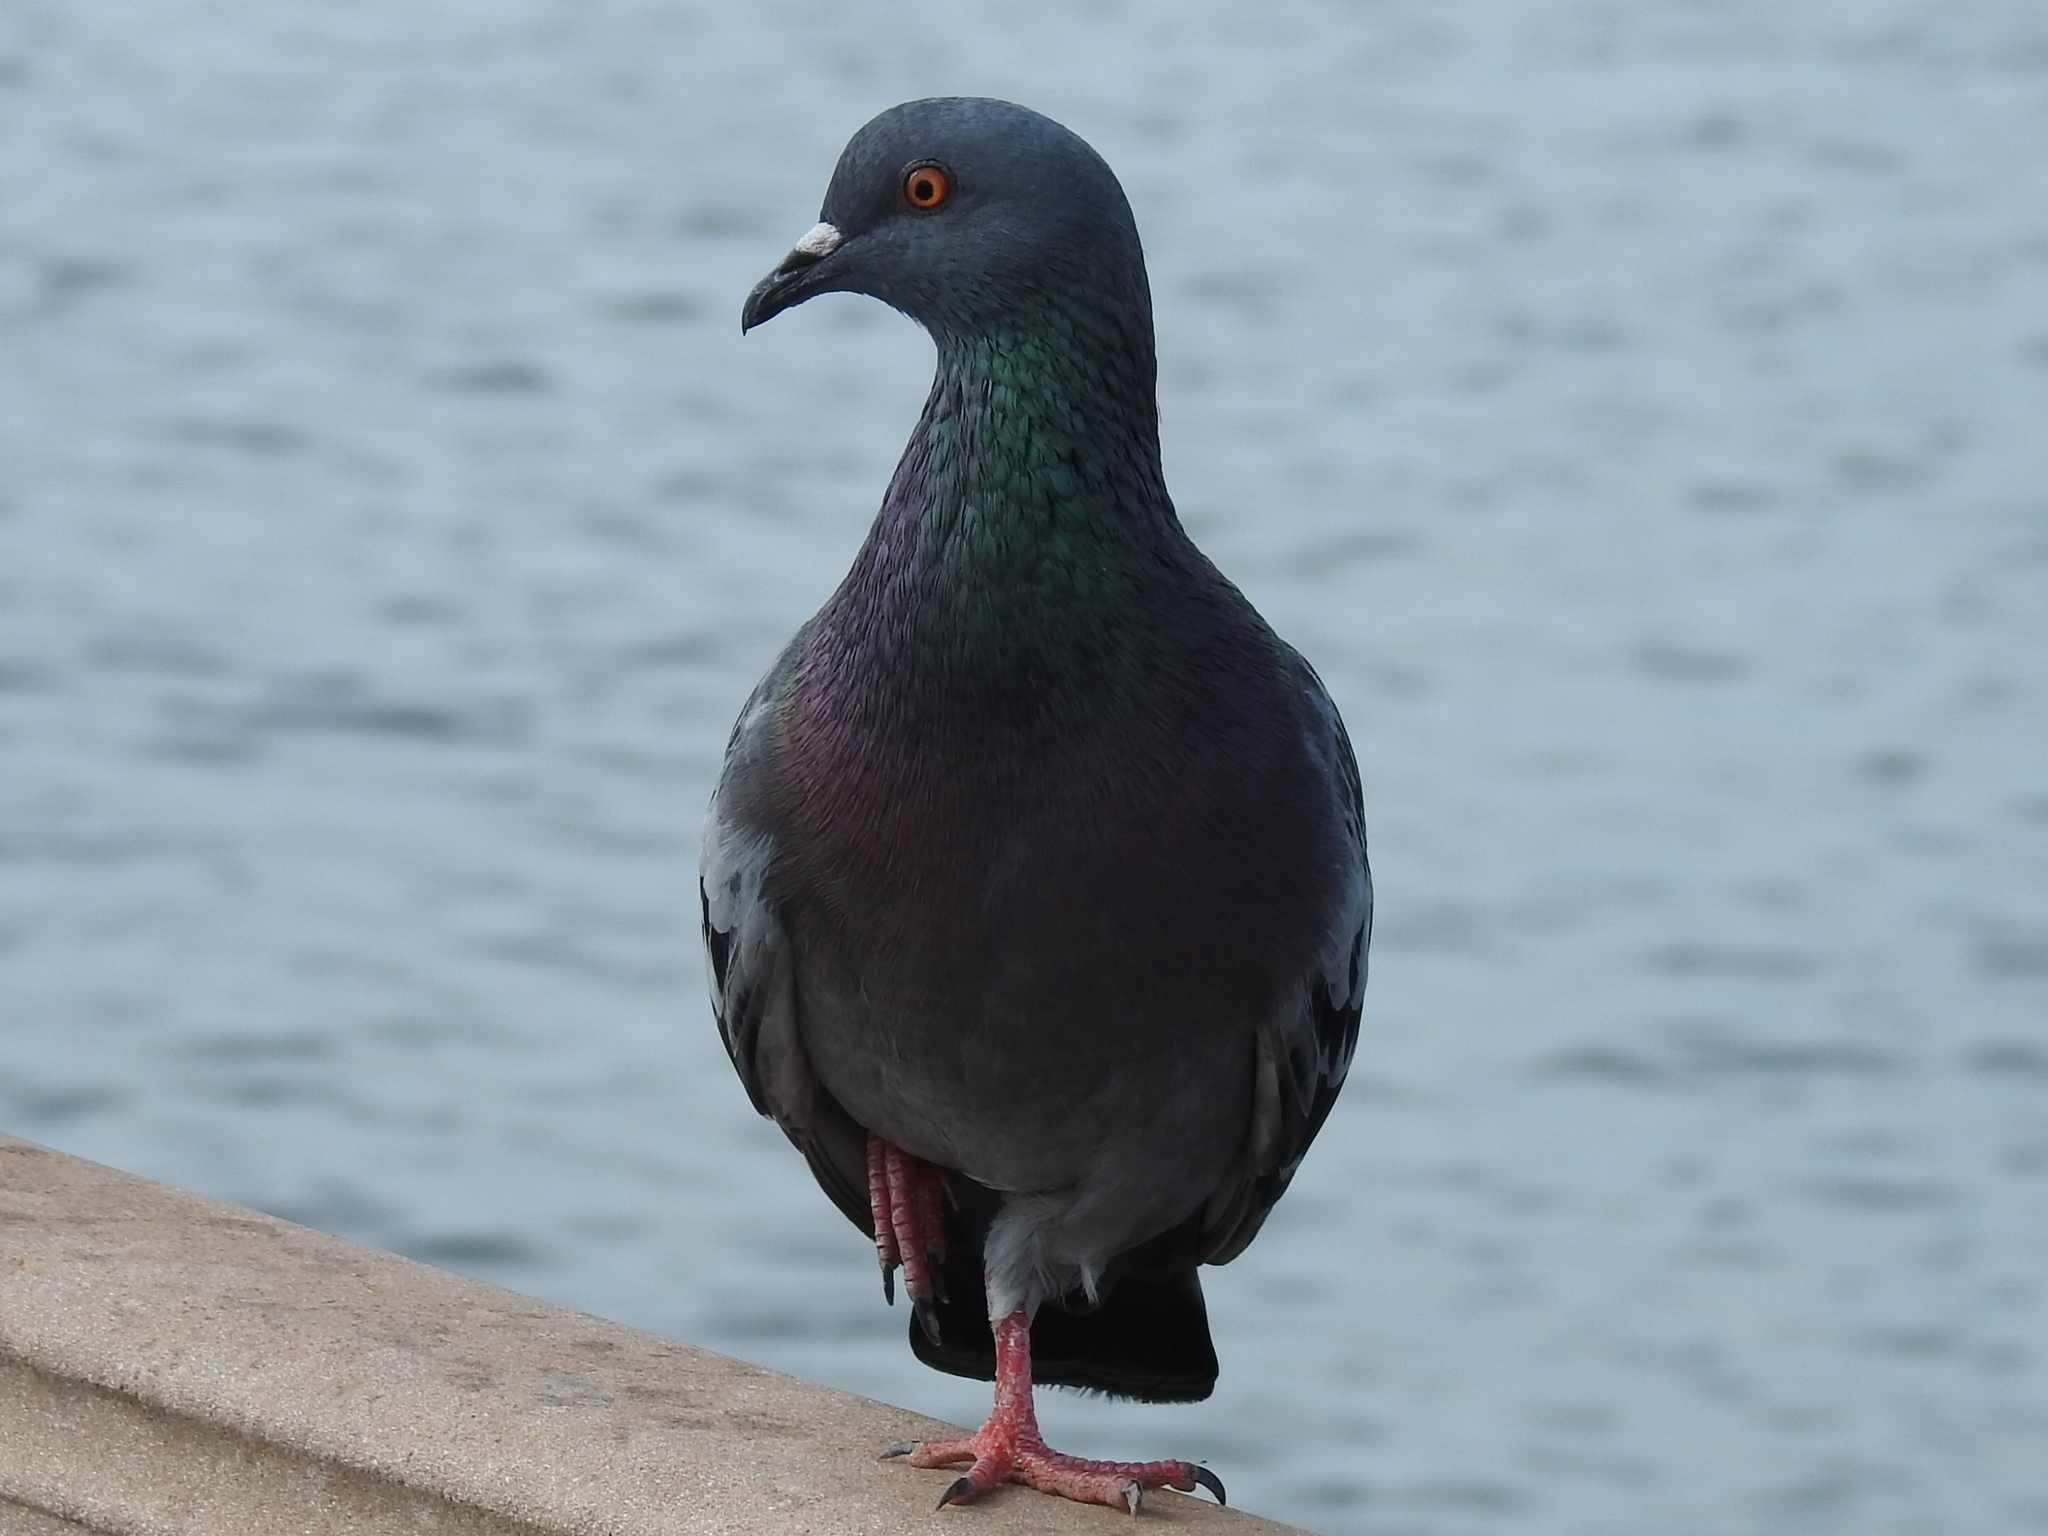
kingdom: Animalia
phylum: Chordata
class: Aves
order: Columbiformes
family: Columbidae
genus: Columba
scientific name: Columba livia
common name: Rock pigeon
